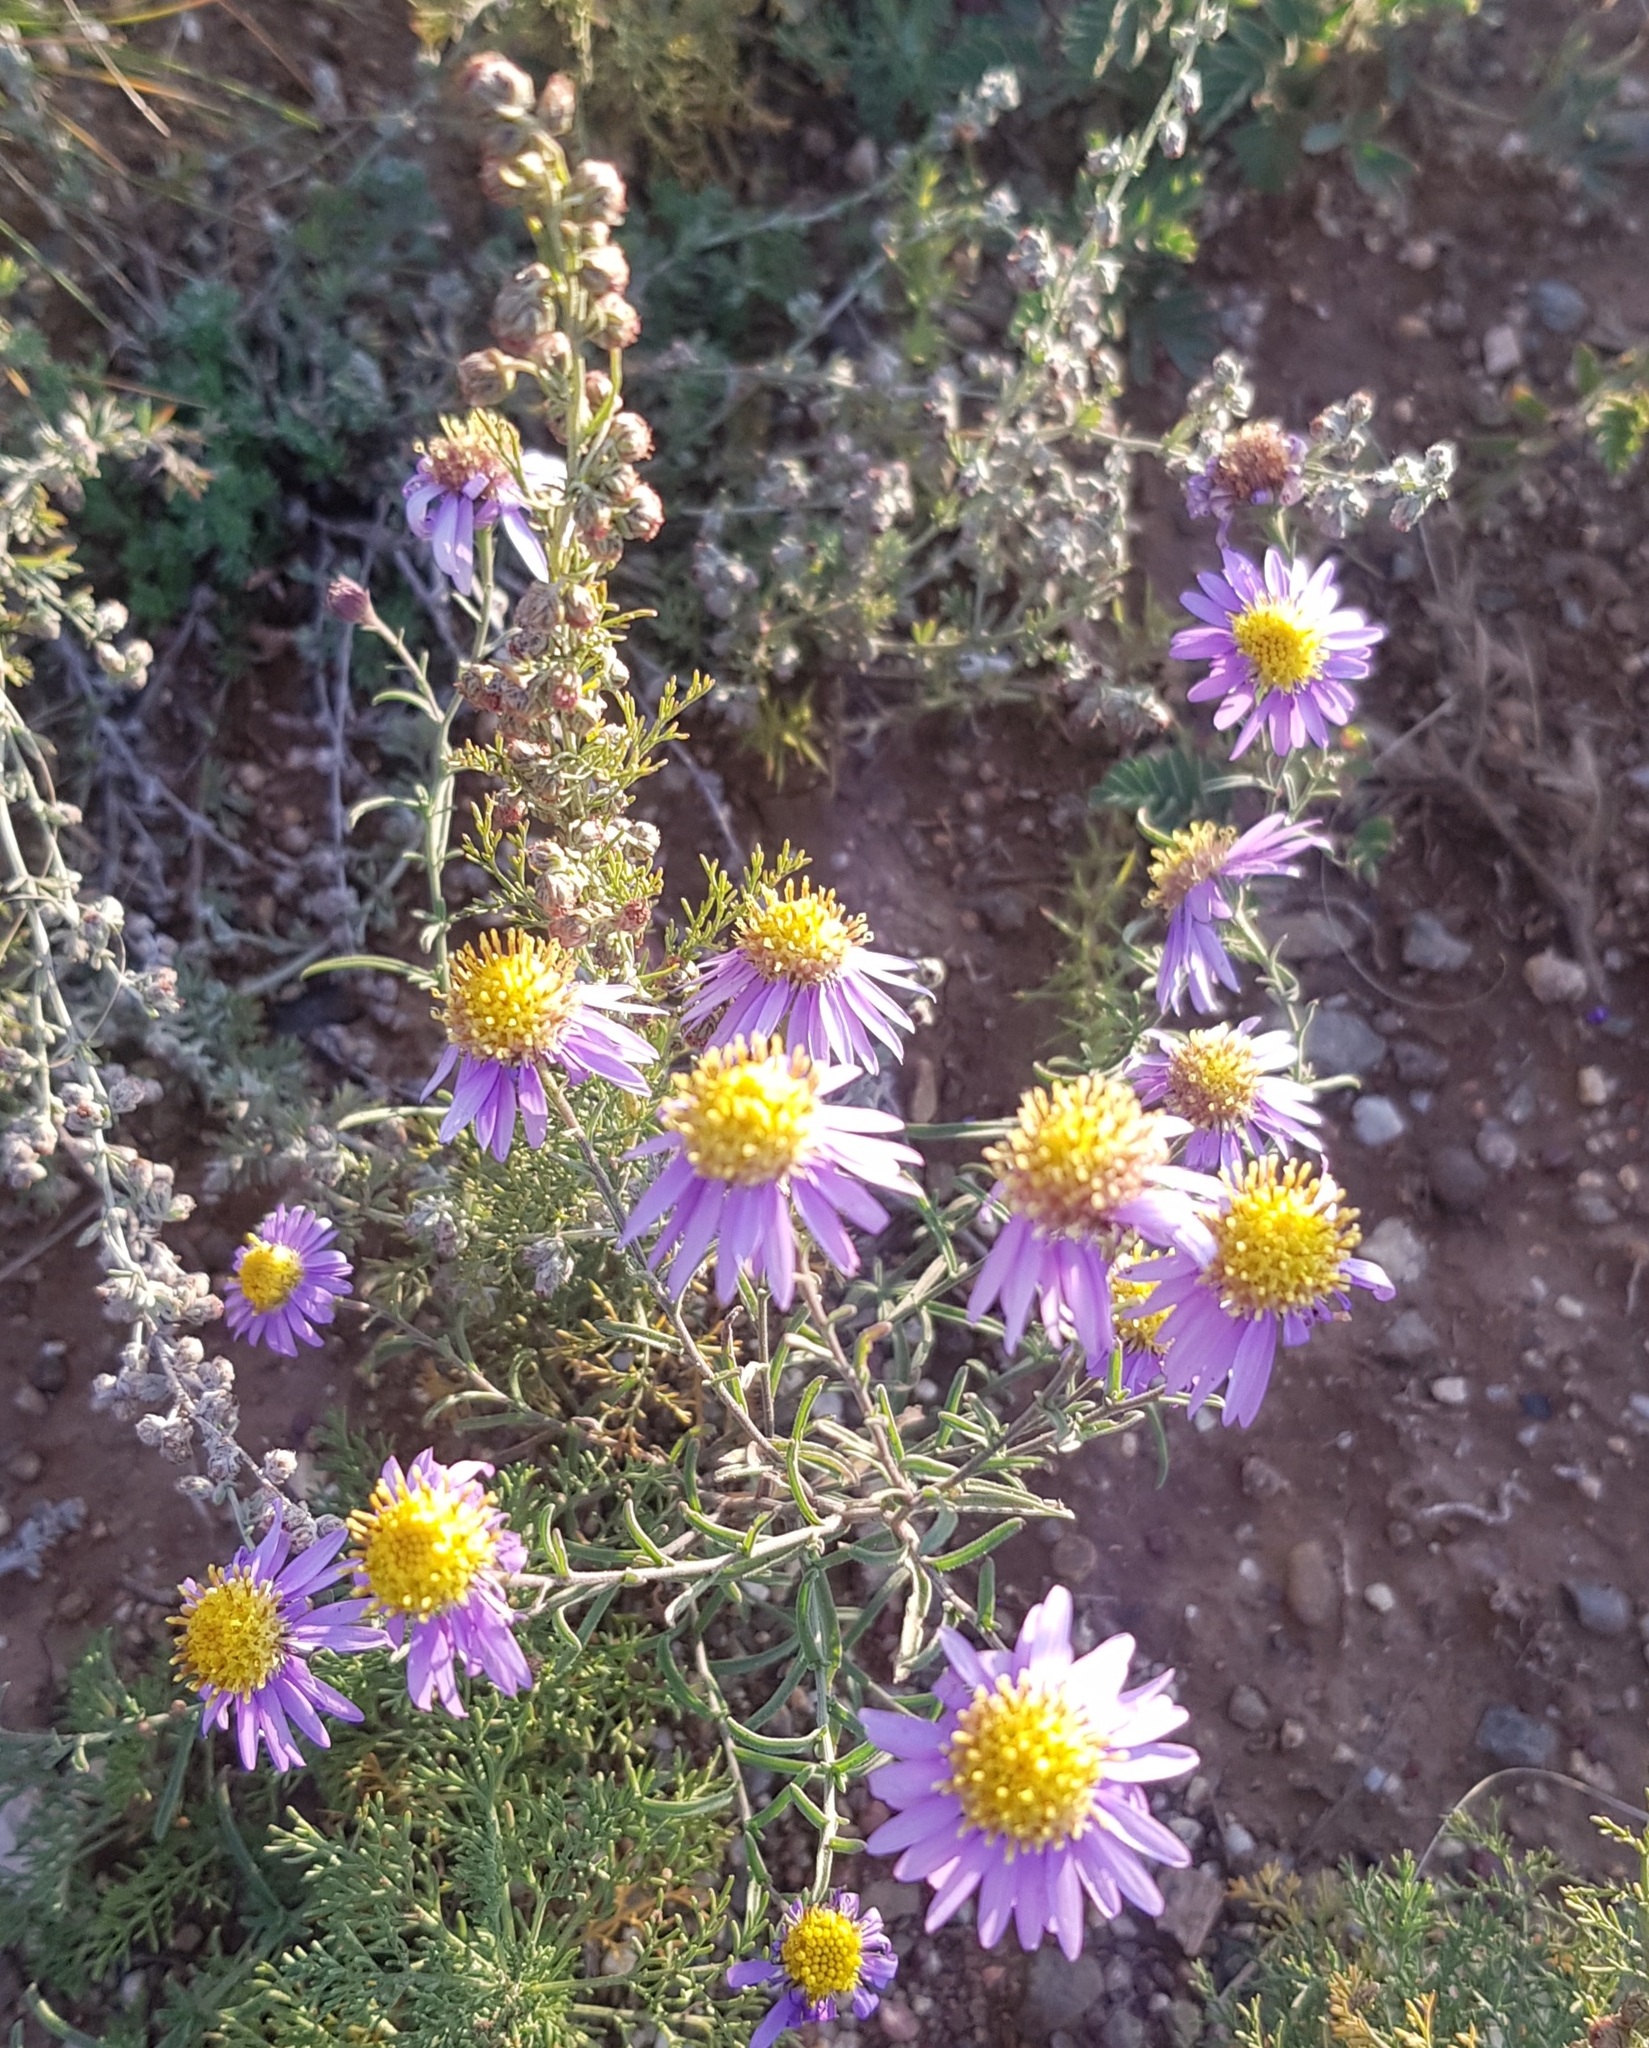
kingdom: Plantae
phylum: Tracheophyta
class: Magnoliopsida
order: Asterales
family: Asteraceae
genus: Heteropappus
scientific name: Heteropappus altaicus
